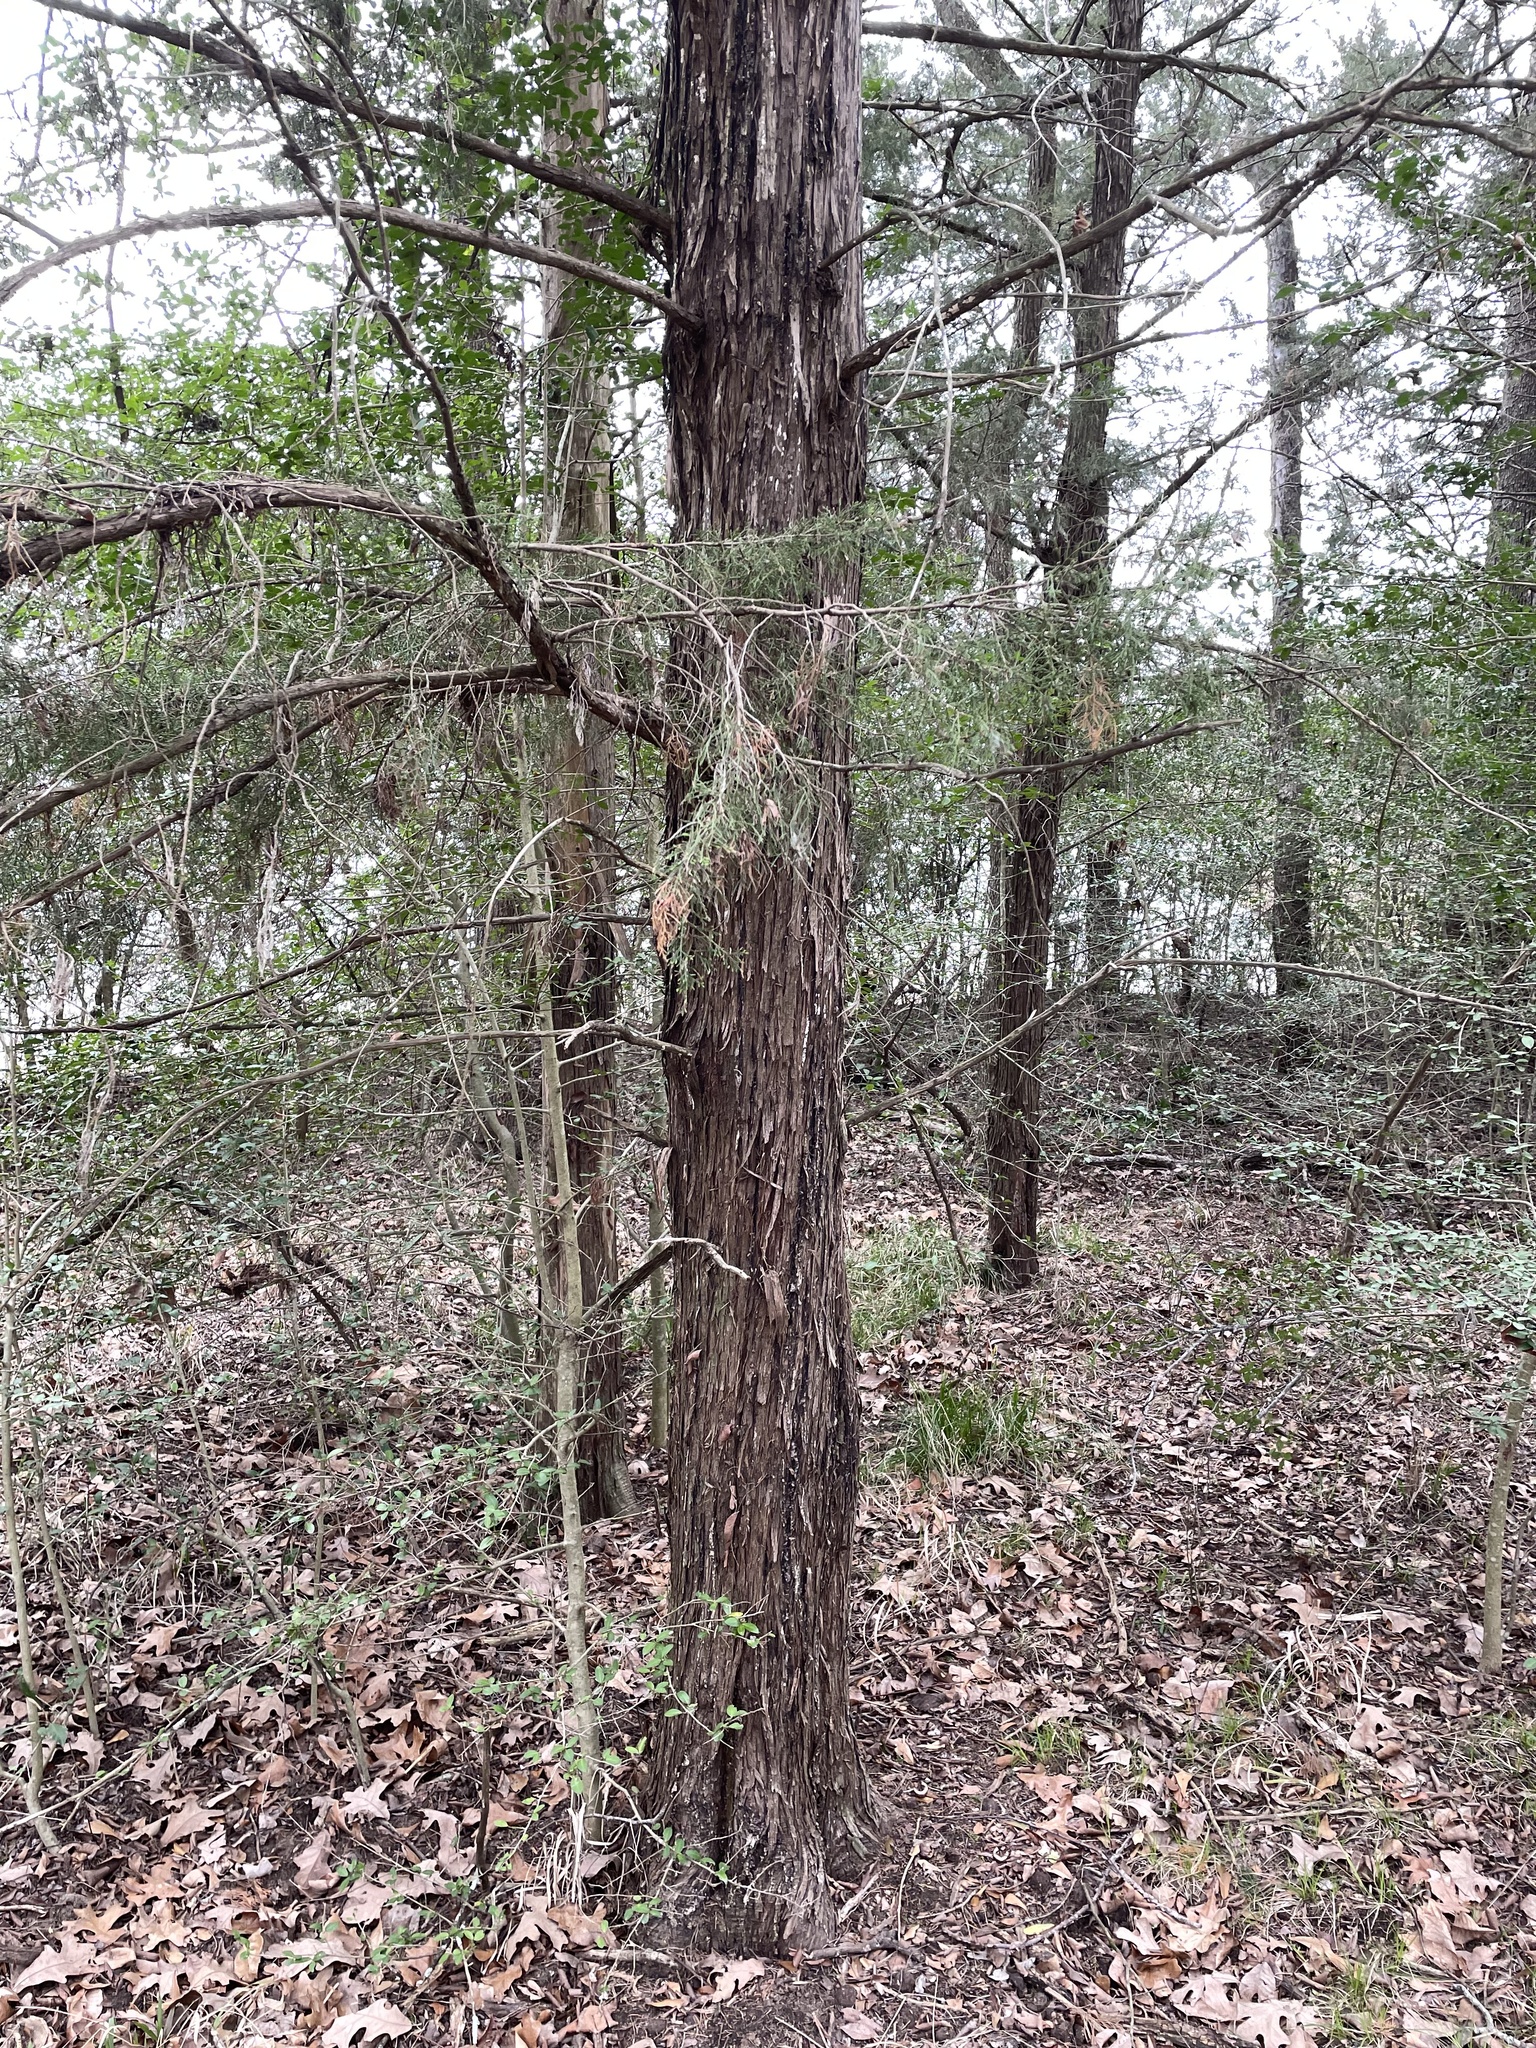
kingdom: Plantae
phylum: Tracheophyta
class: Pinopsida
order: Pinales
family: Cupressaceae
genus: Juniperus
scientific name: Juniperus virginiana
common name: Red juniper
